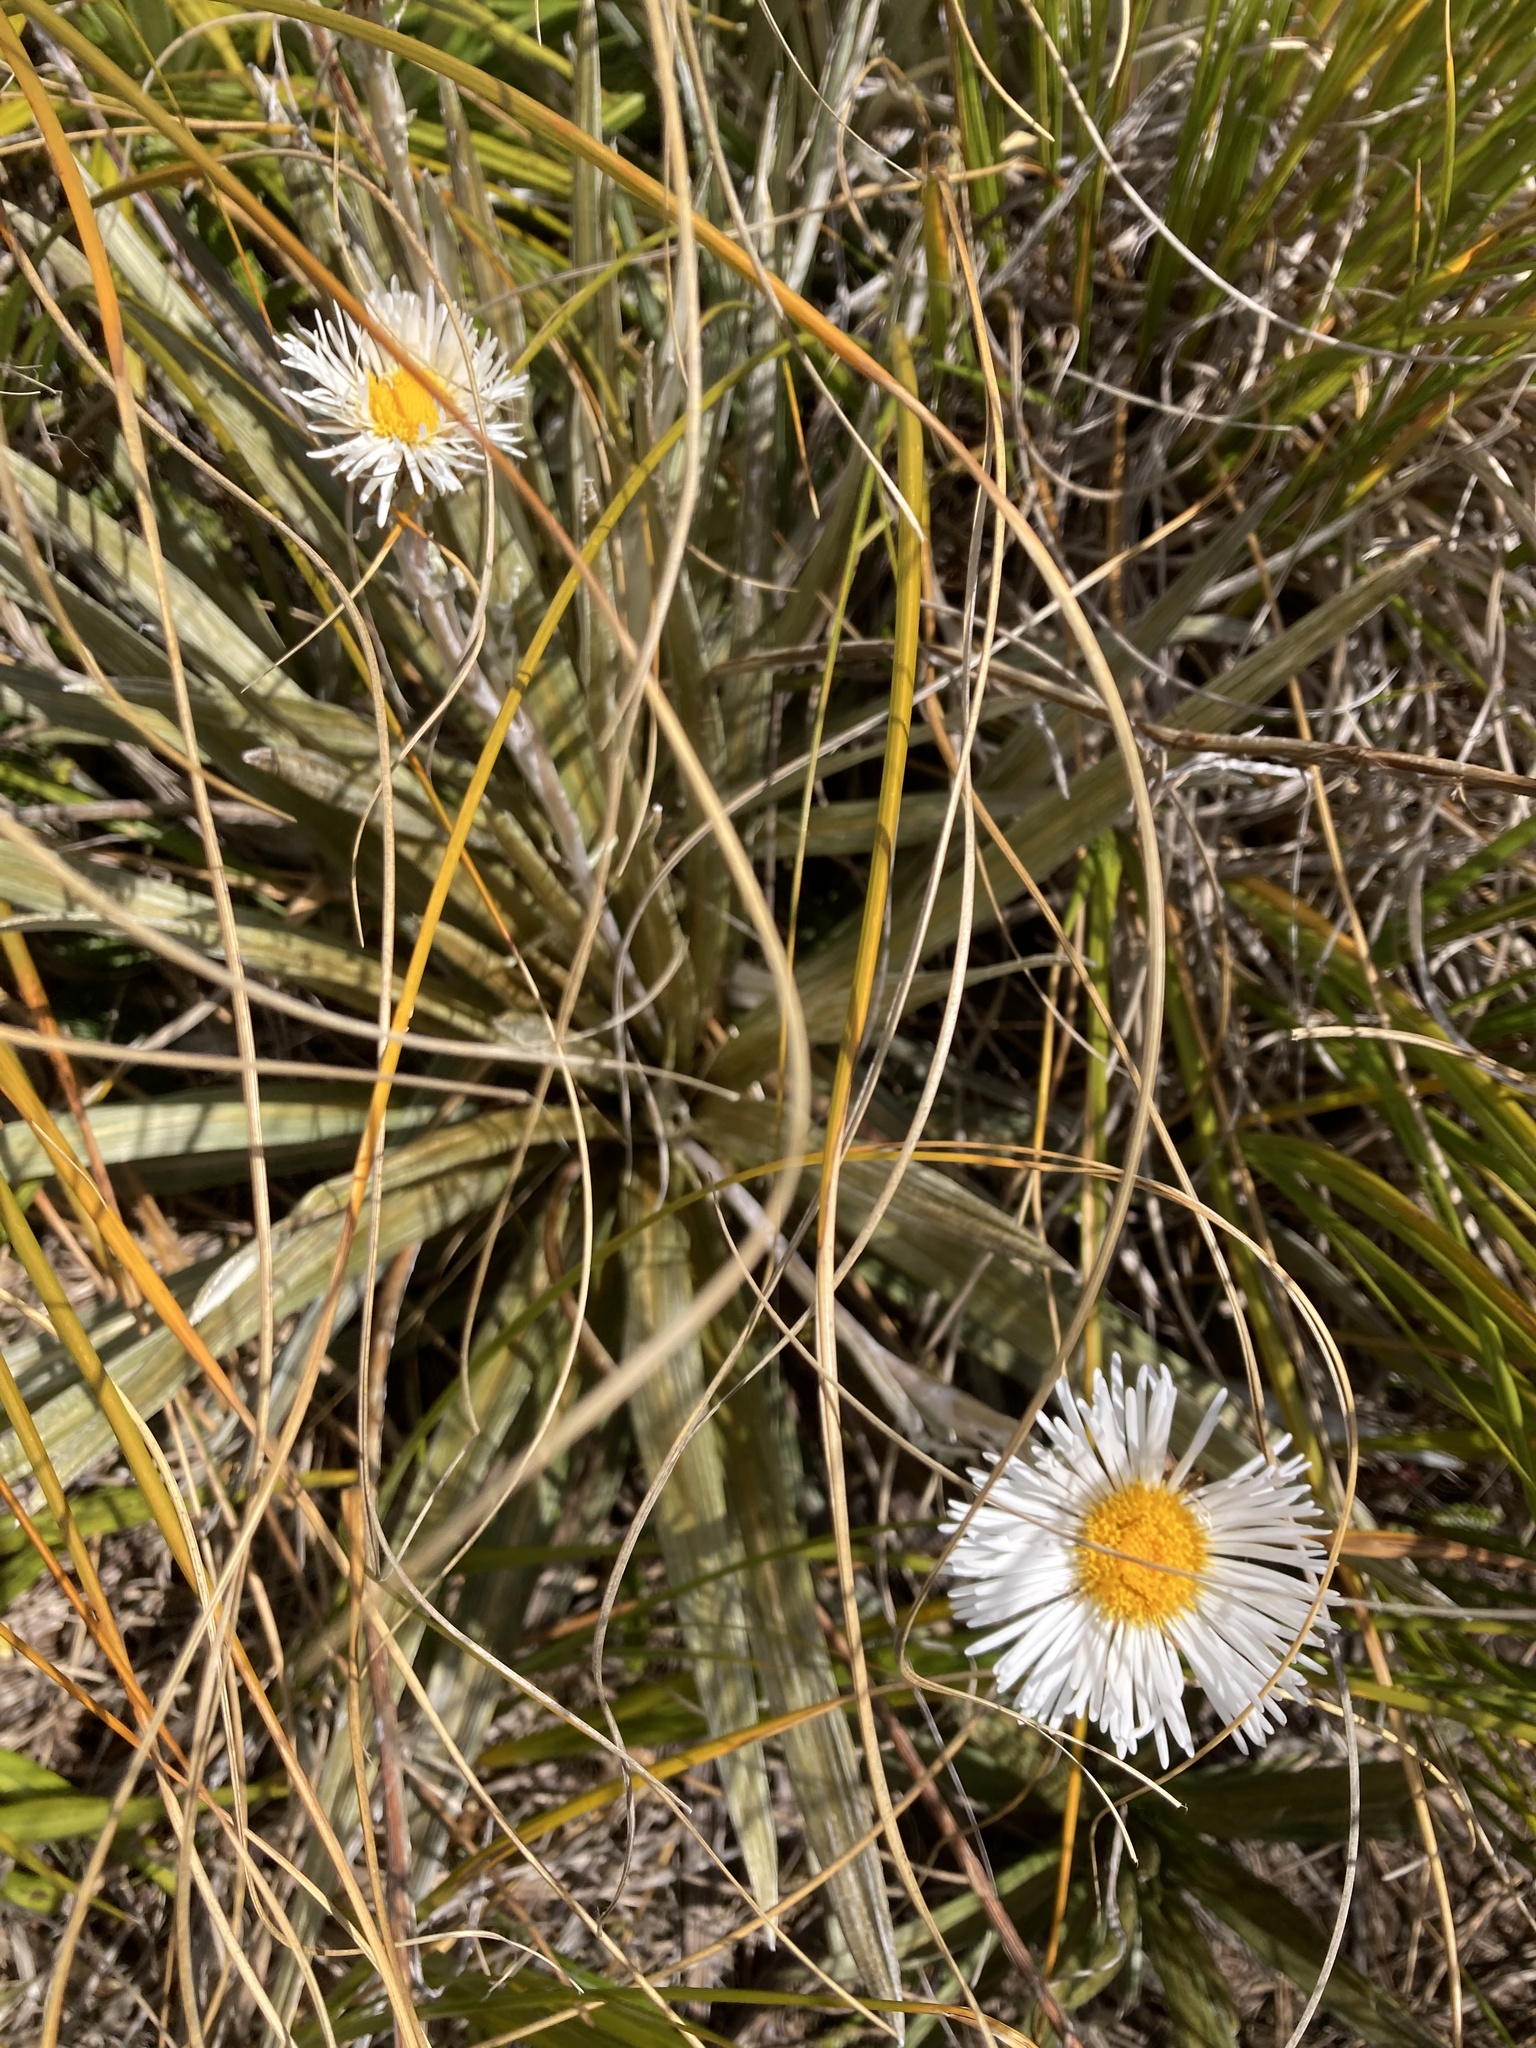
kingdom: Plantae
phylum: Tracheophyta
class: Magnoliopsida
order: Asterales
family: Asteraceae
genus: Celmisia
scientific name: Celmisia armstrongii
